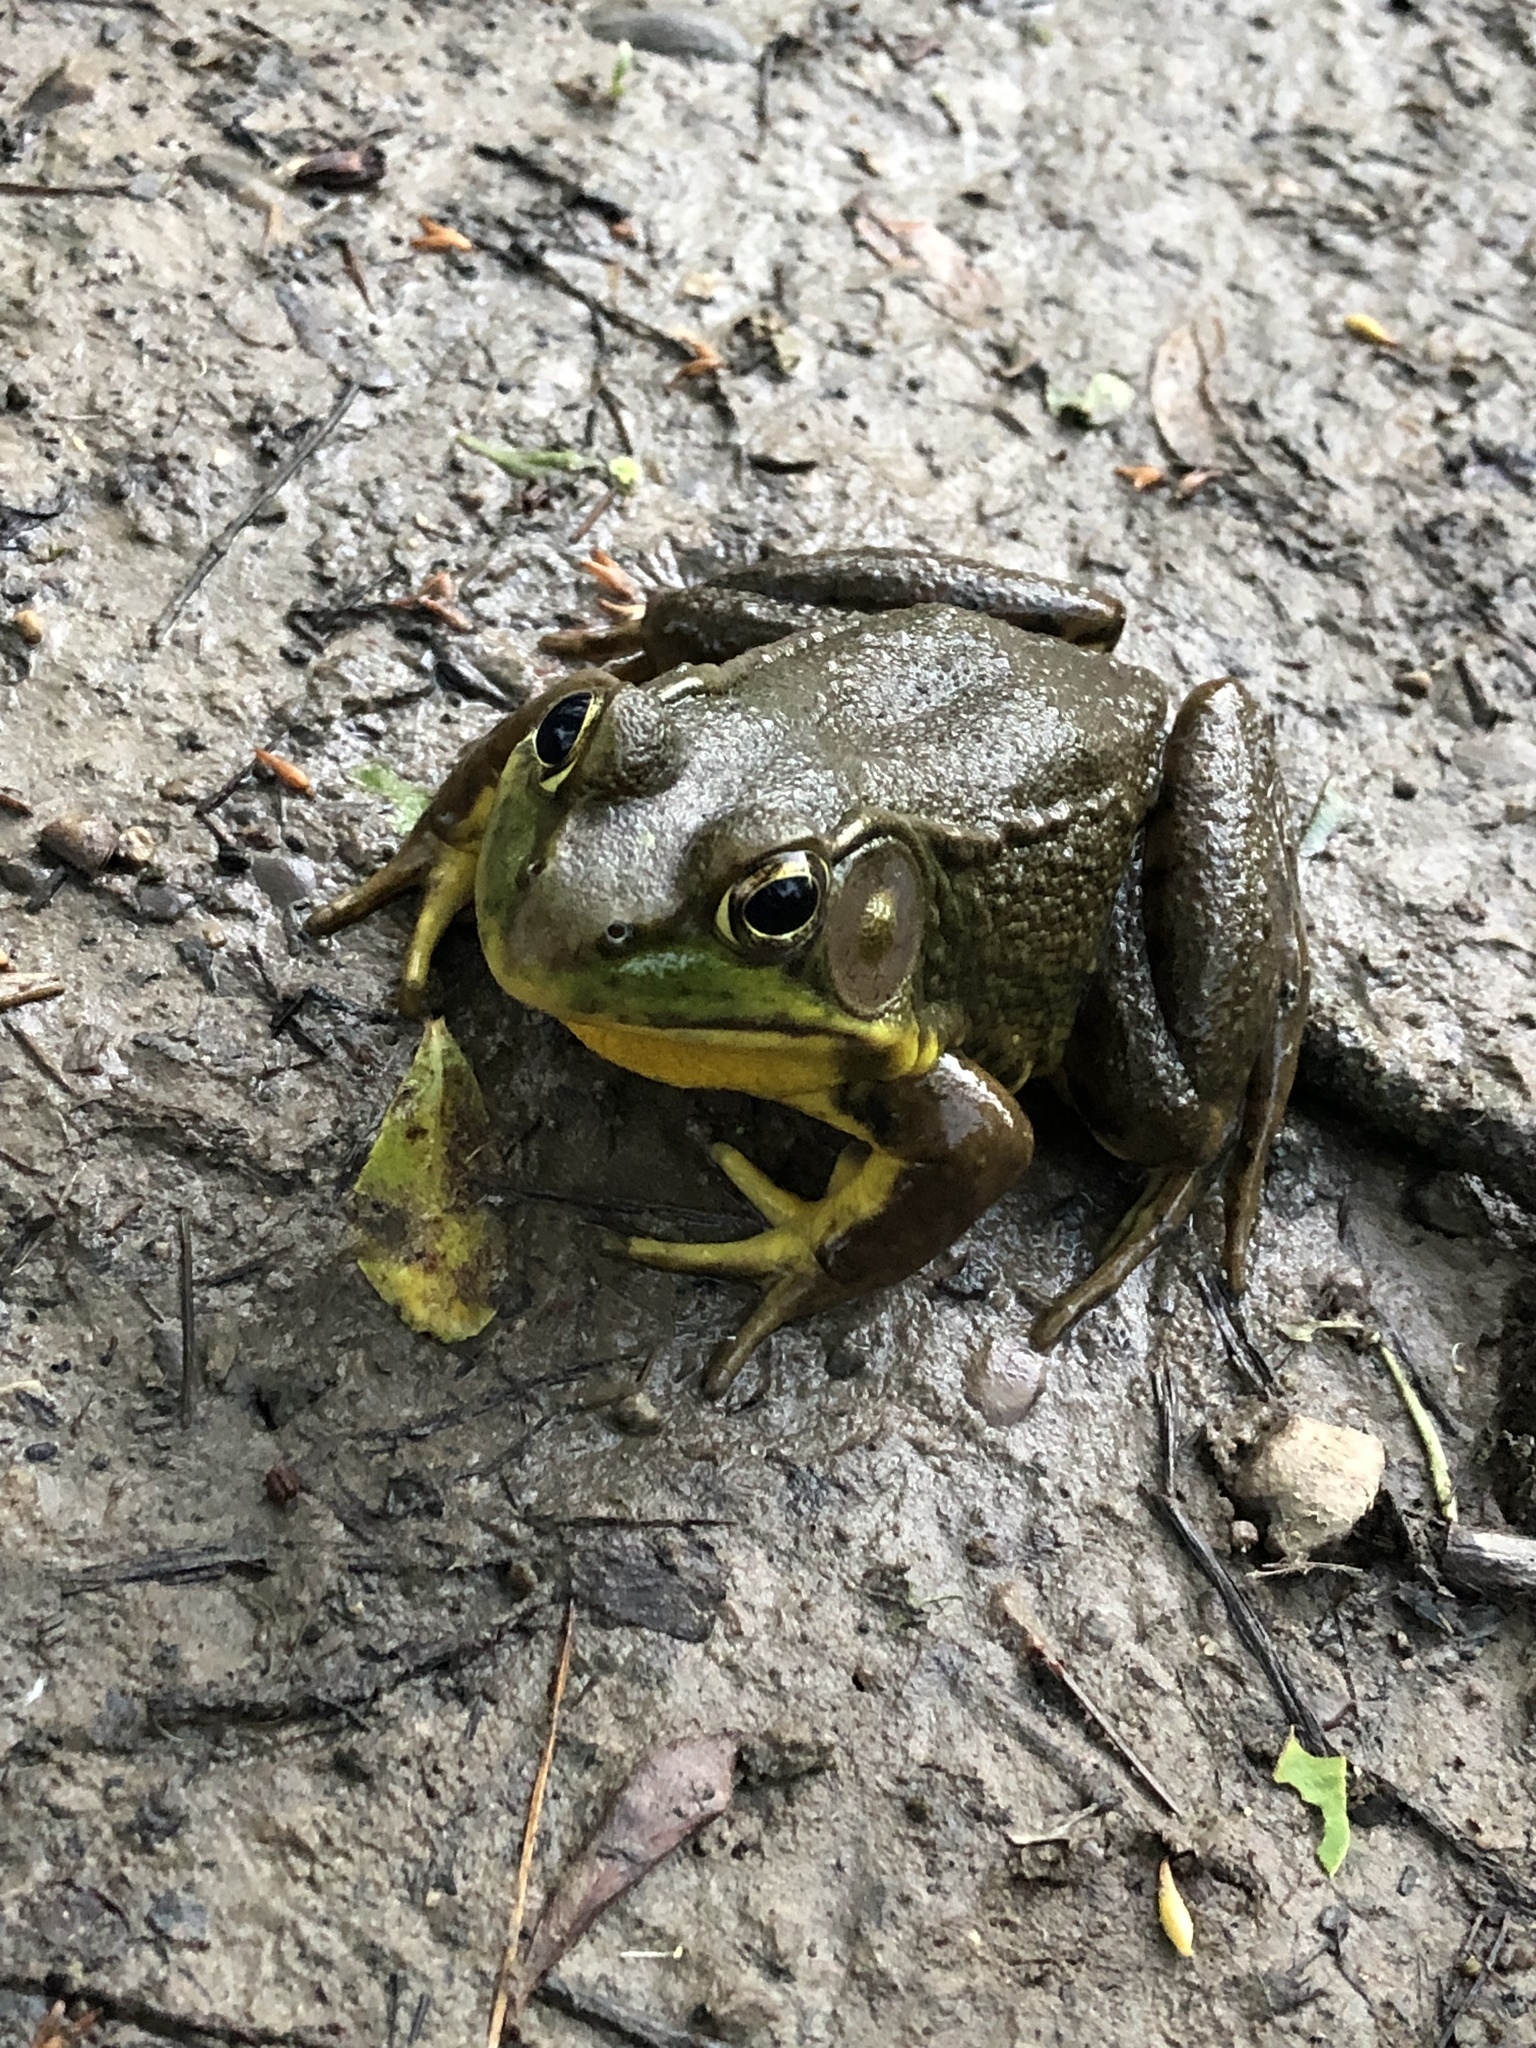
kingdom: Animalia
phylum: Chordata
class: Amphibia
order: Anura
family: Ranidae
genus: Lithobates
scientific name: Lithobates clamitans
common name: Green frog
